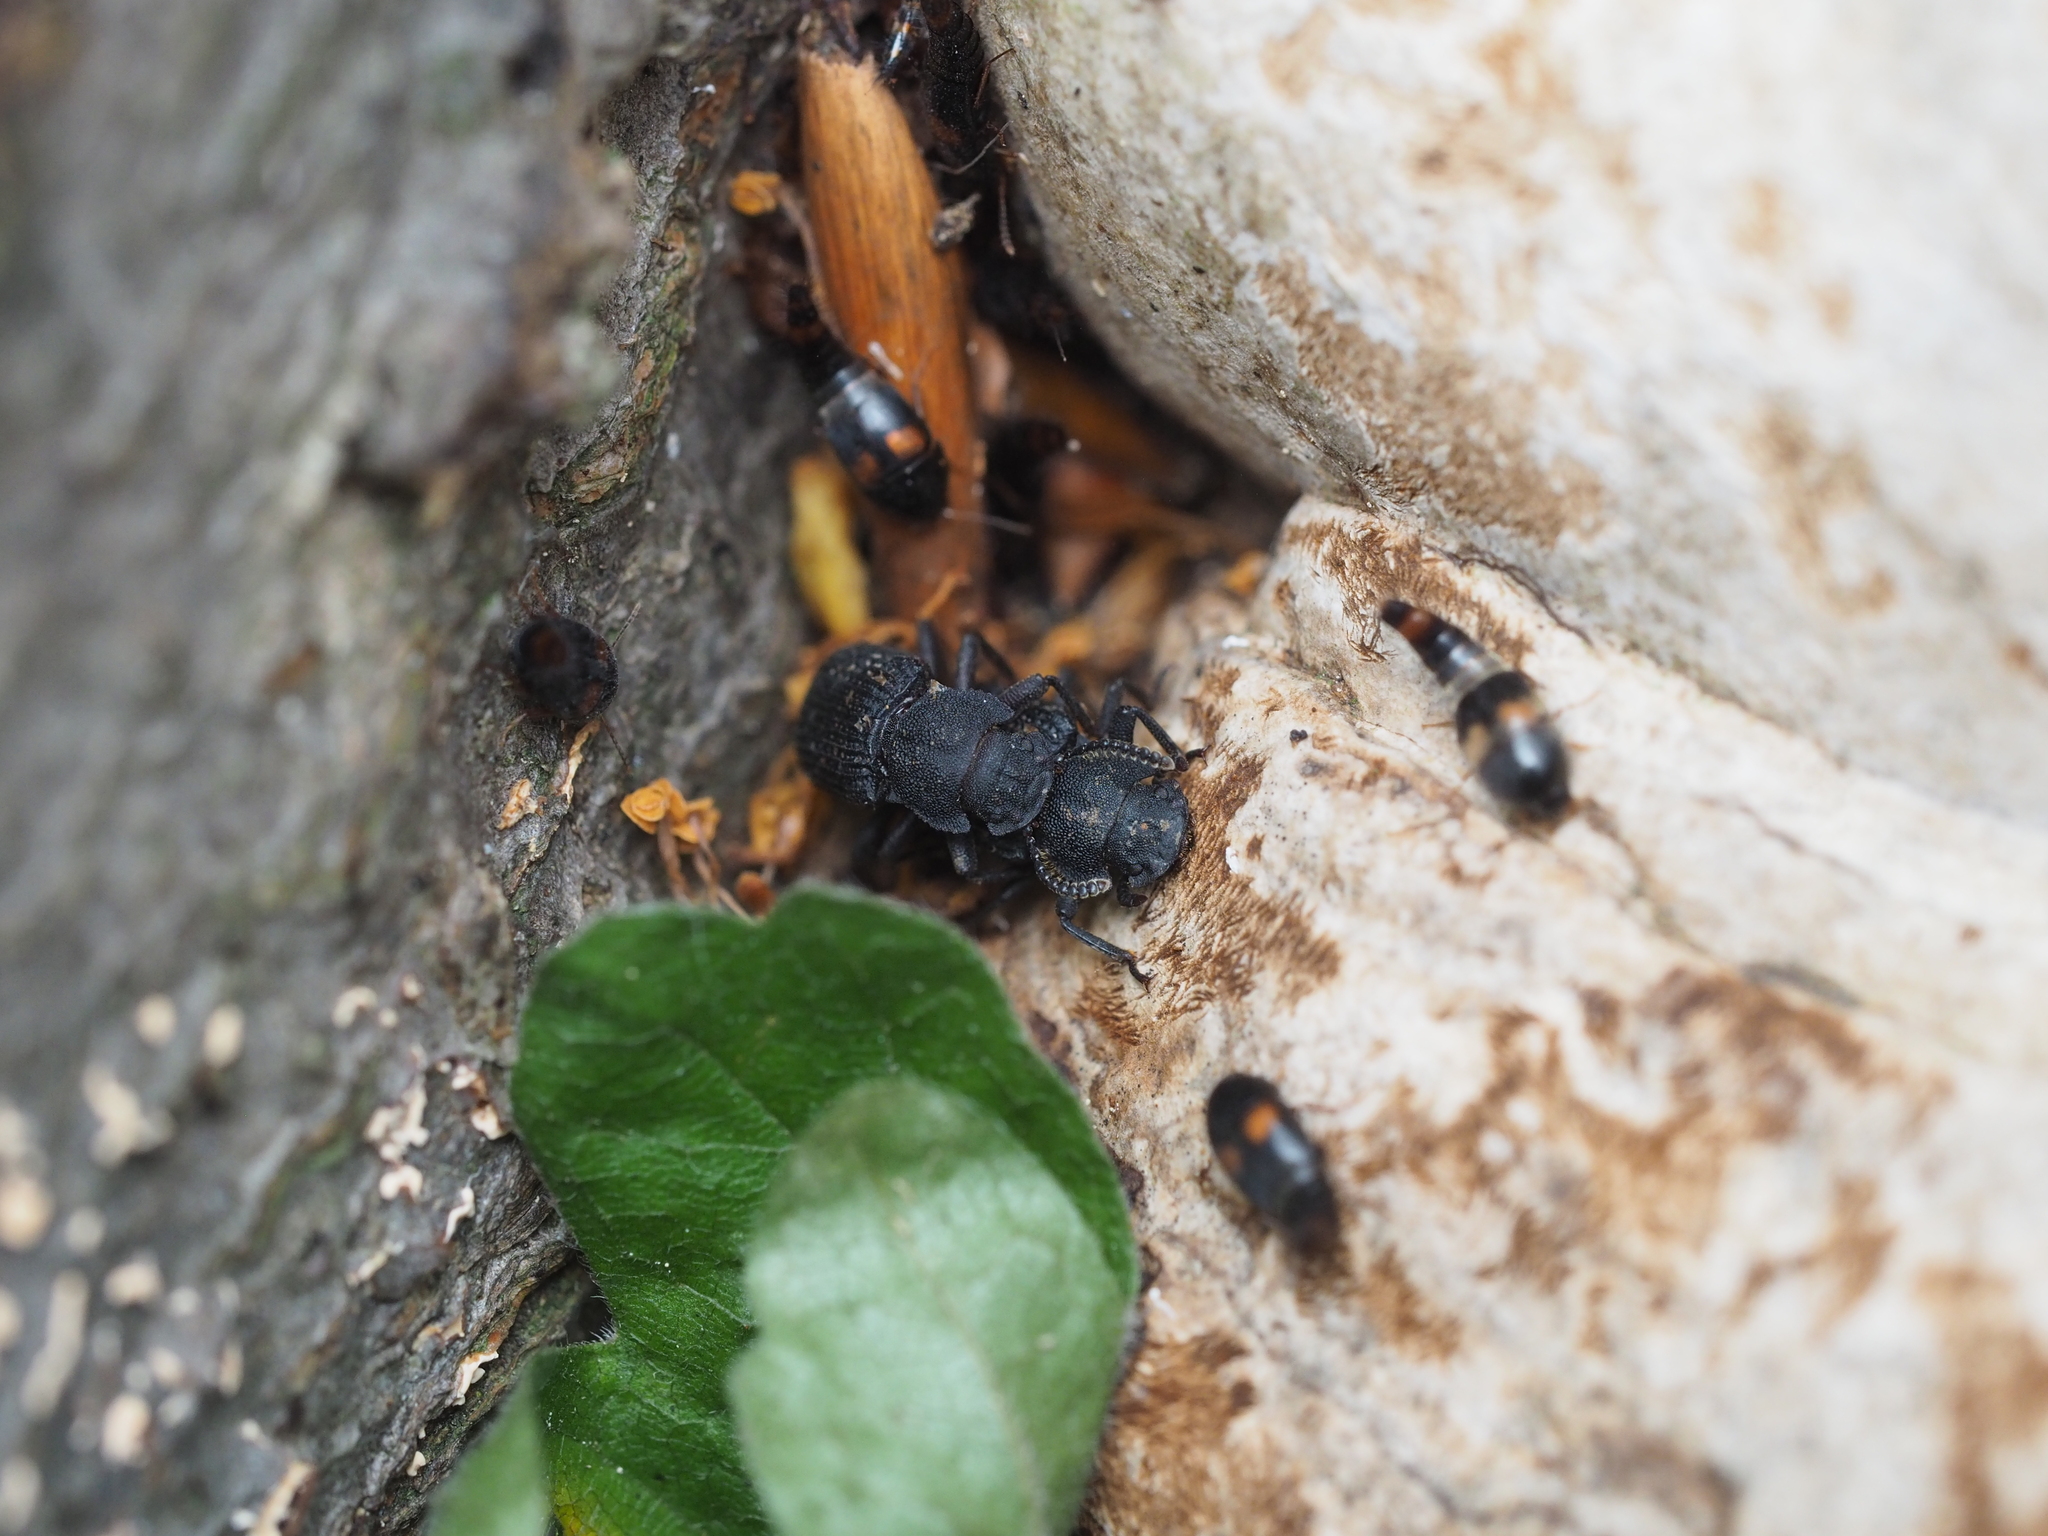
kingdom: Animalia
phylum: Arthropoda
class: Insecta
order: Coleoptera
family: Tenebrionidae
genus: Bolitophagus
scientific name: Bolitophagus reticulatus
